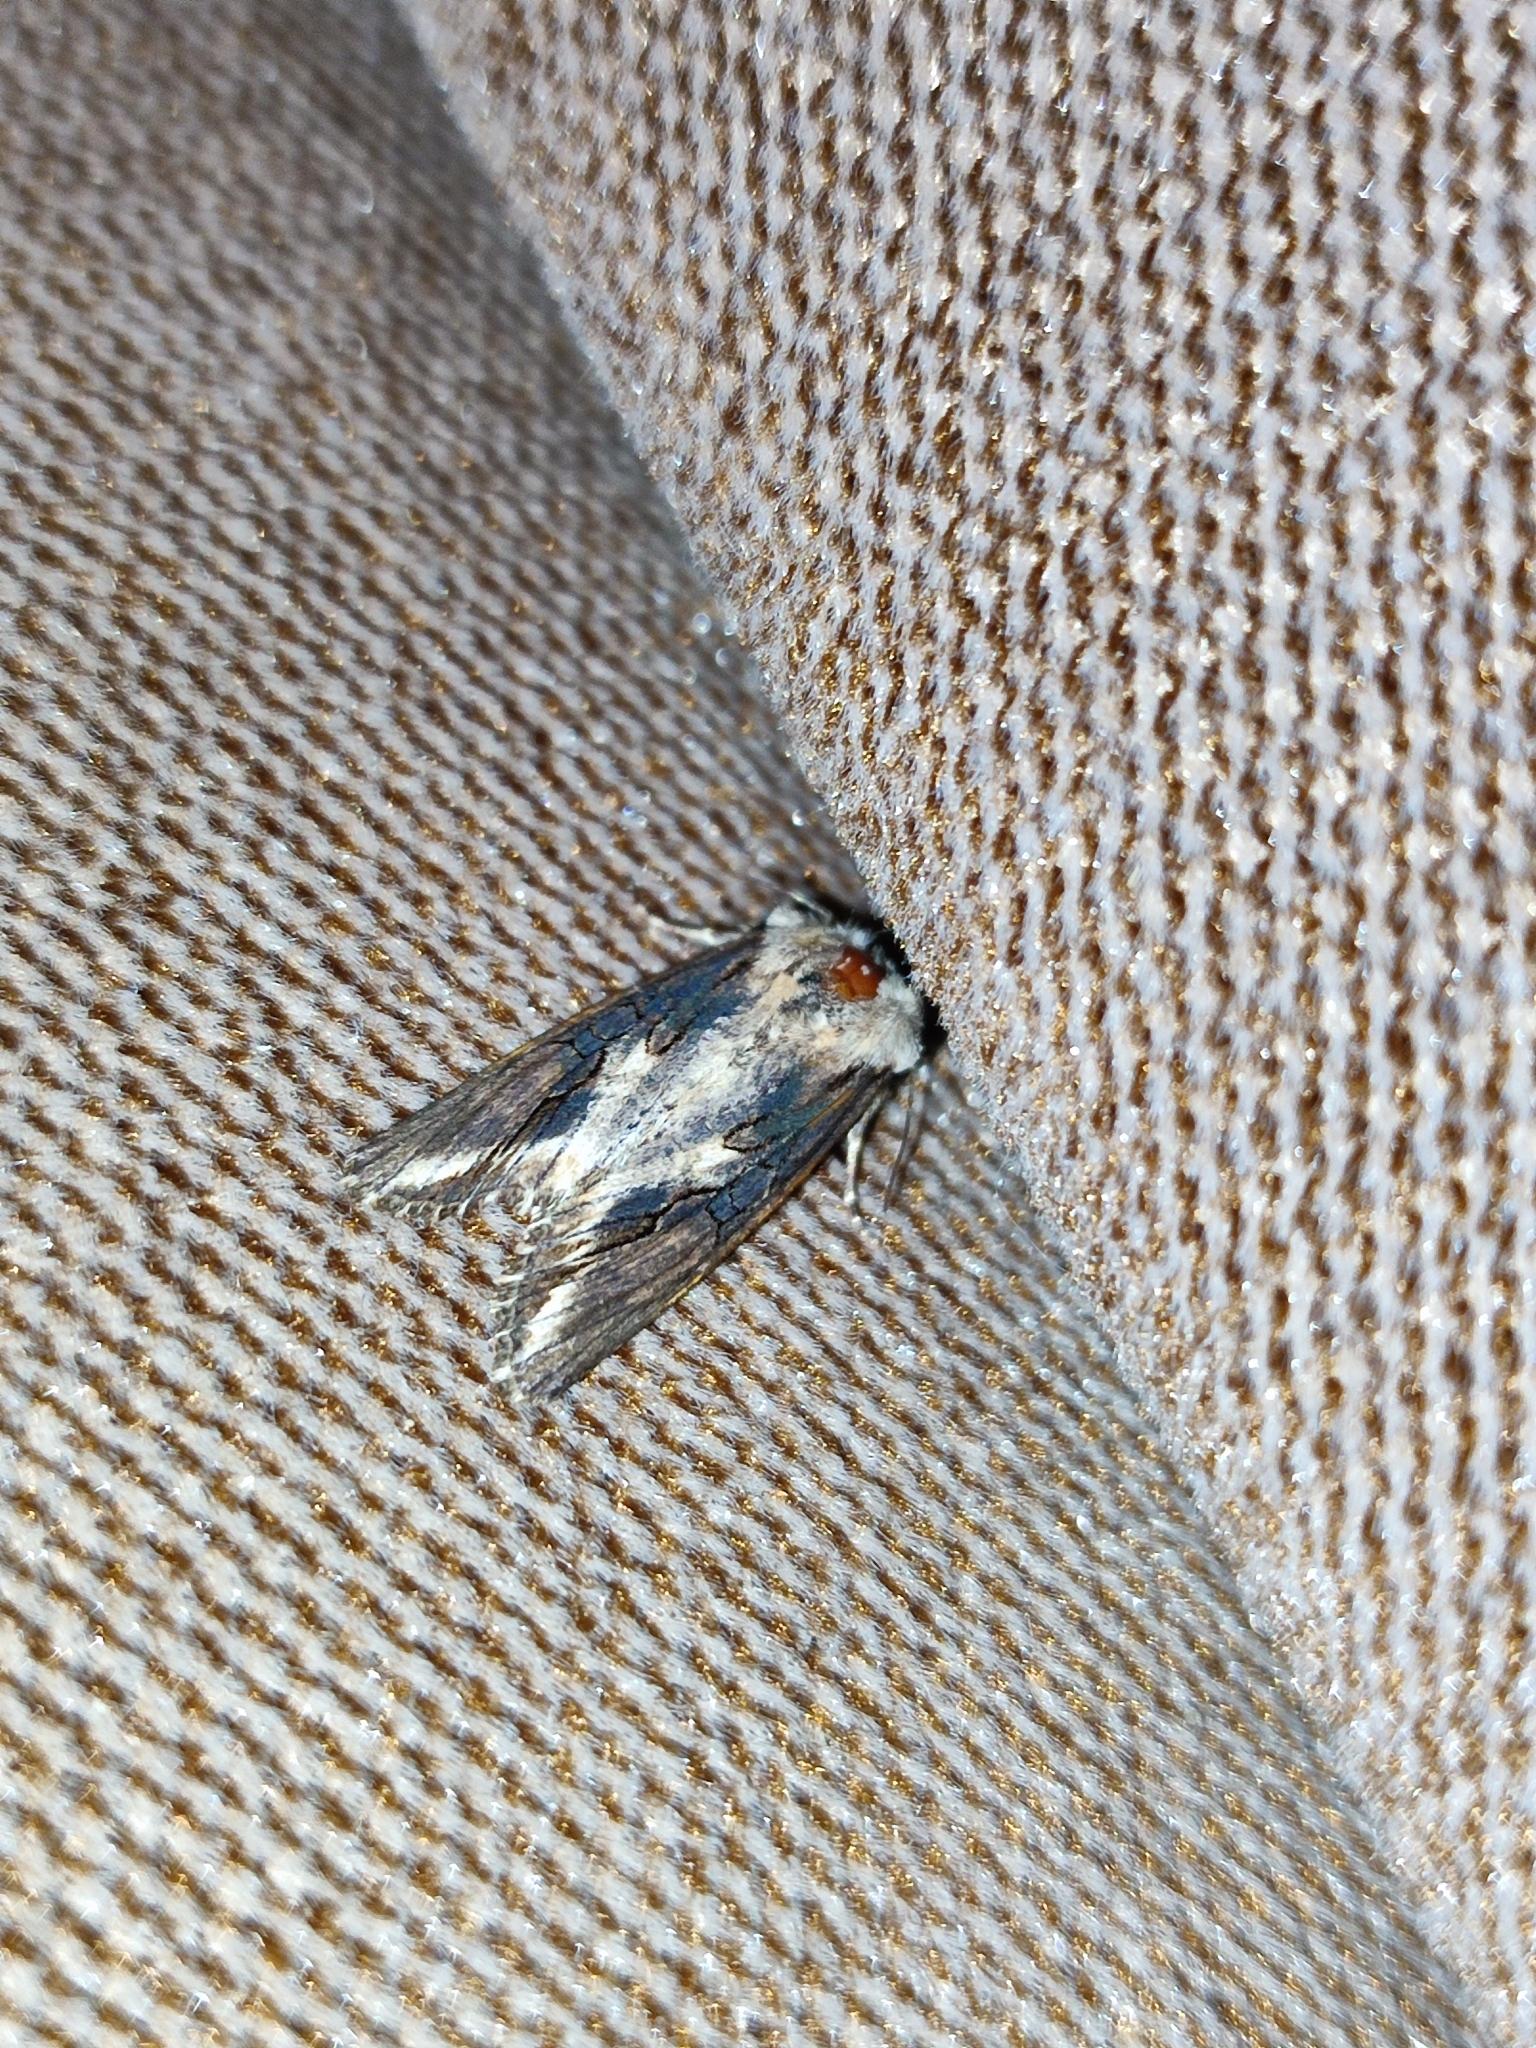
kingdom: Animalia
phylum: Arthropoda
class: Insecta
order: Lepidoptera
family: Noctuidae
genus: Egira
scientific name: Egira conspicillaris
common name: Silver cloud
